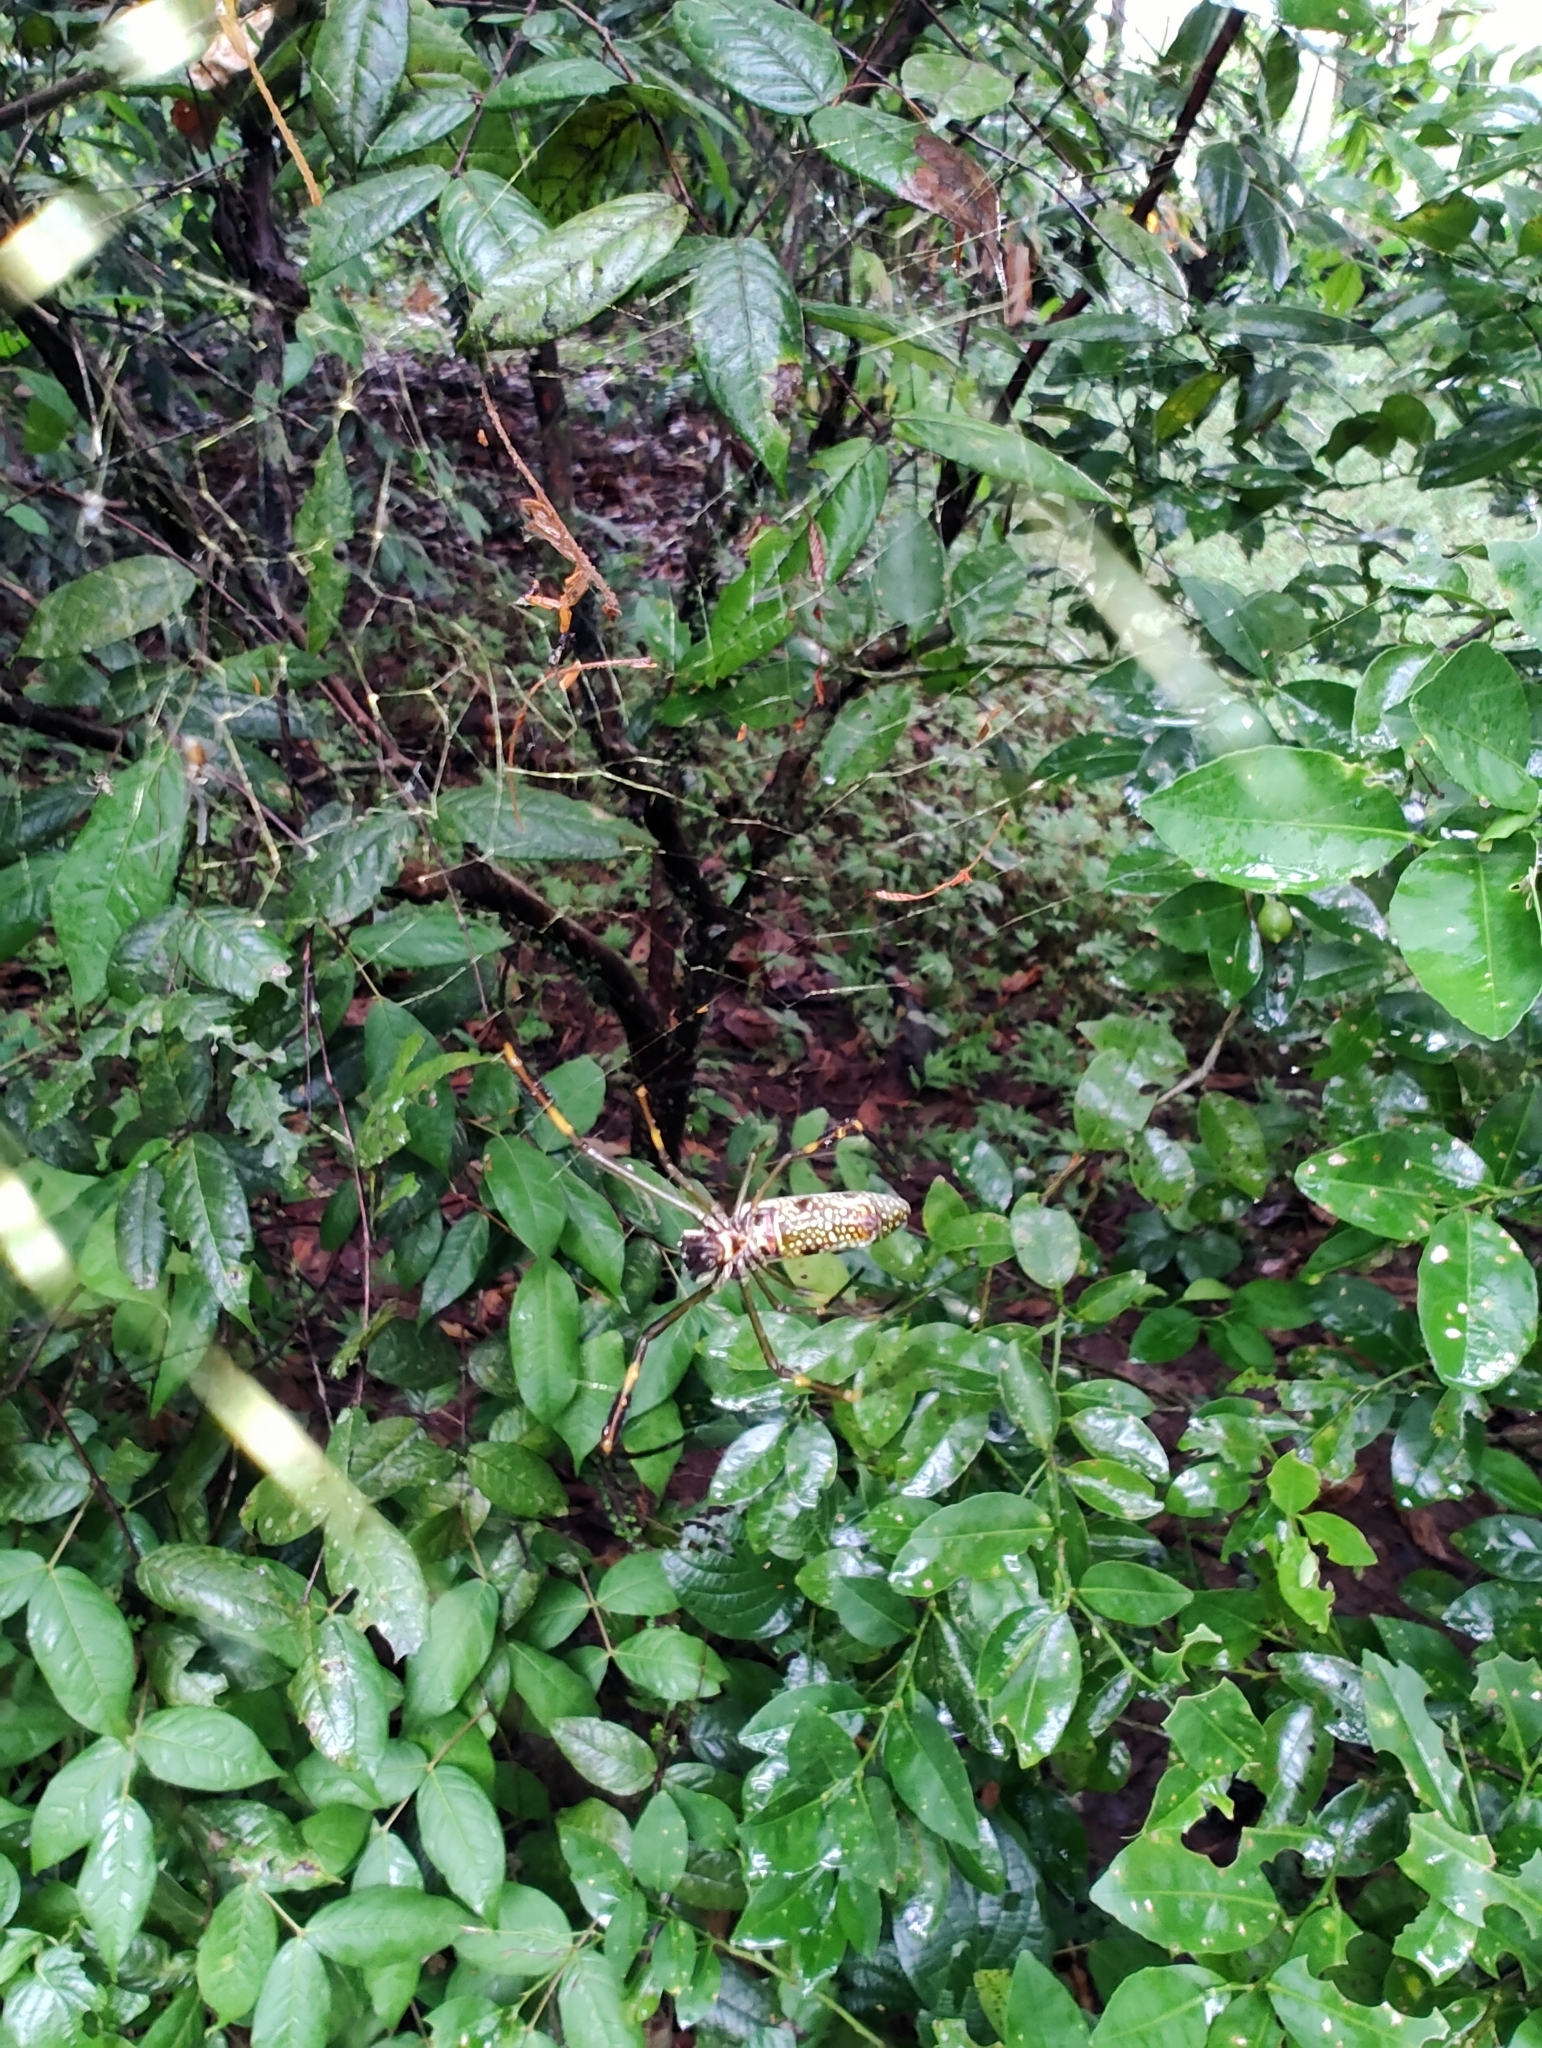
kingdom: Animalia
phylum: Arthropoda
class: Arachnida
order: Araneae
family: Araneidae
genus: Trichonephila
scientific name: Trichonephila clavipes
